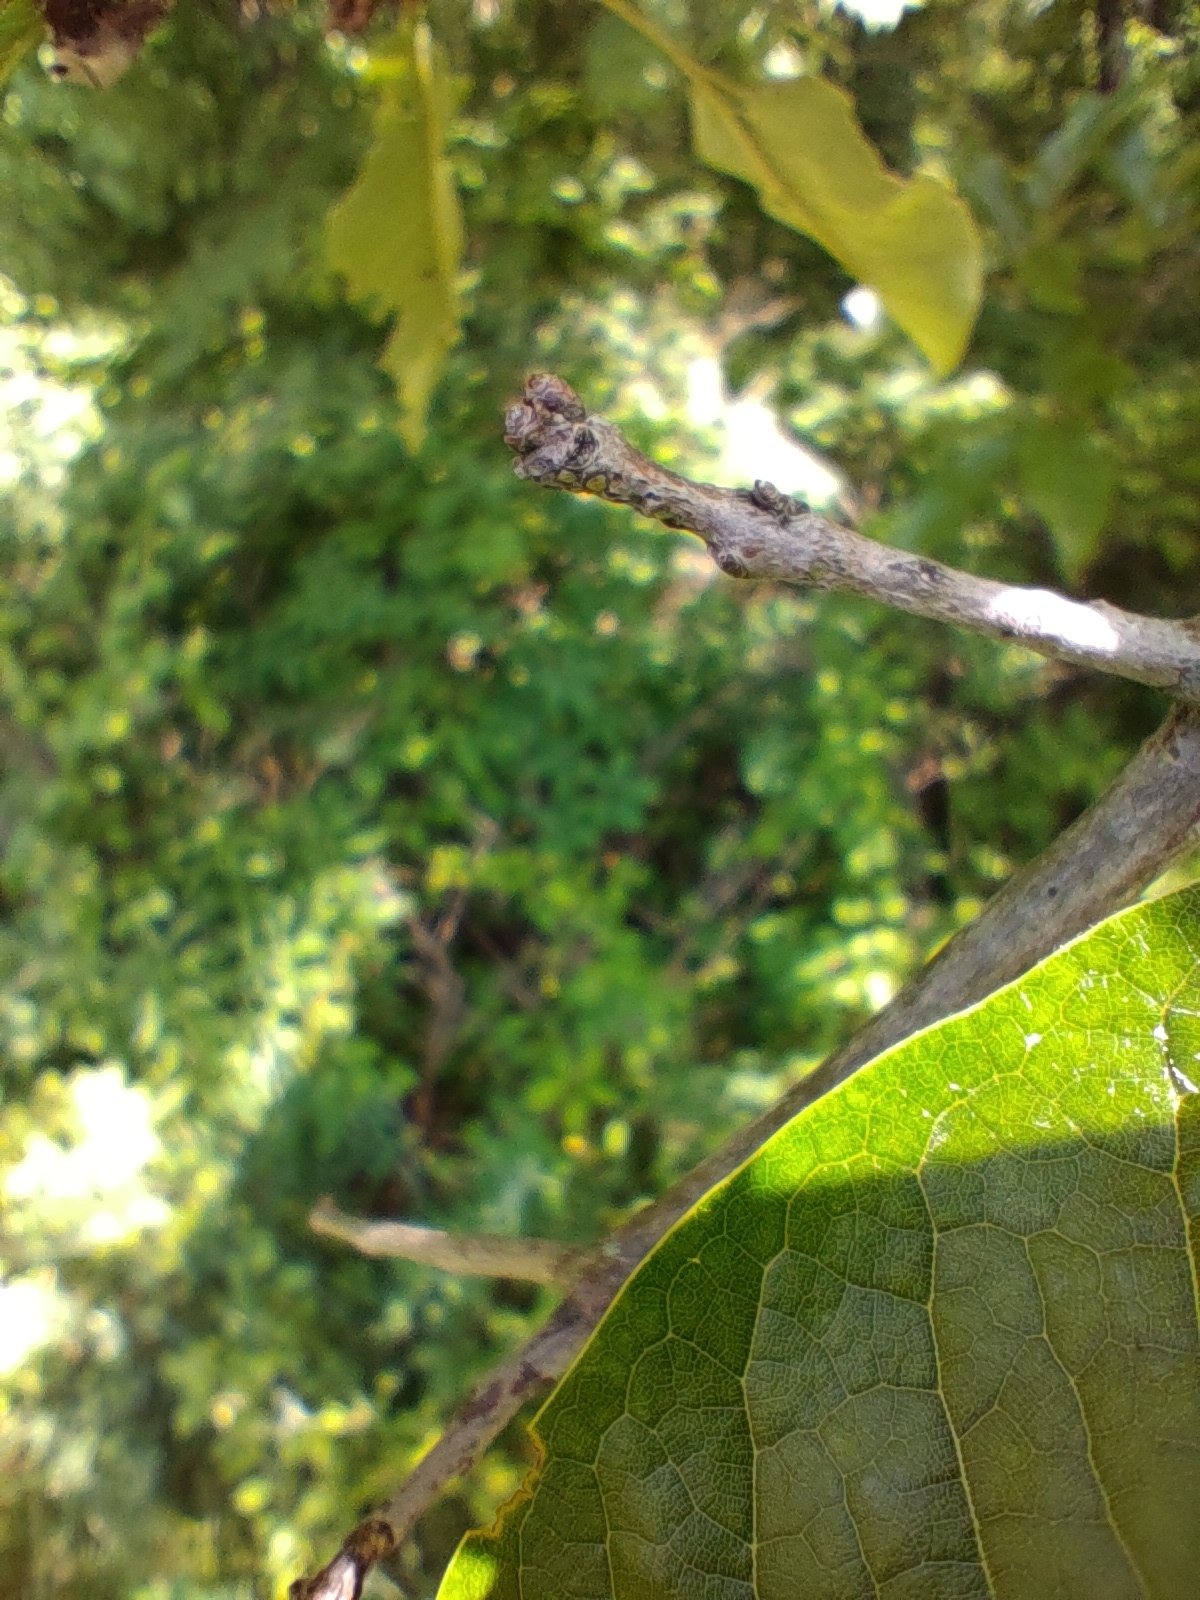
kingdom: Plantae
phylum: Tracheophyta
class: Magnoliopsida
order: Fagales
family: Fagaceae
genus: Quercus
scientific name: Quercus imbricaria
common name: Shingle oak
